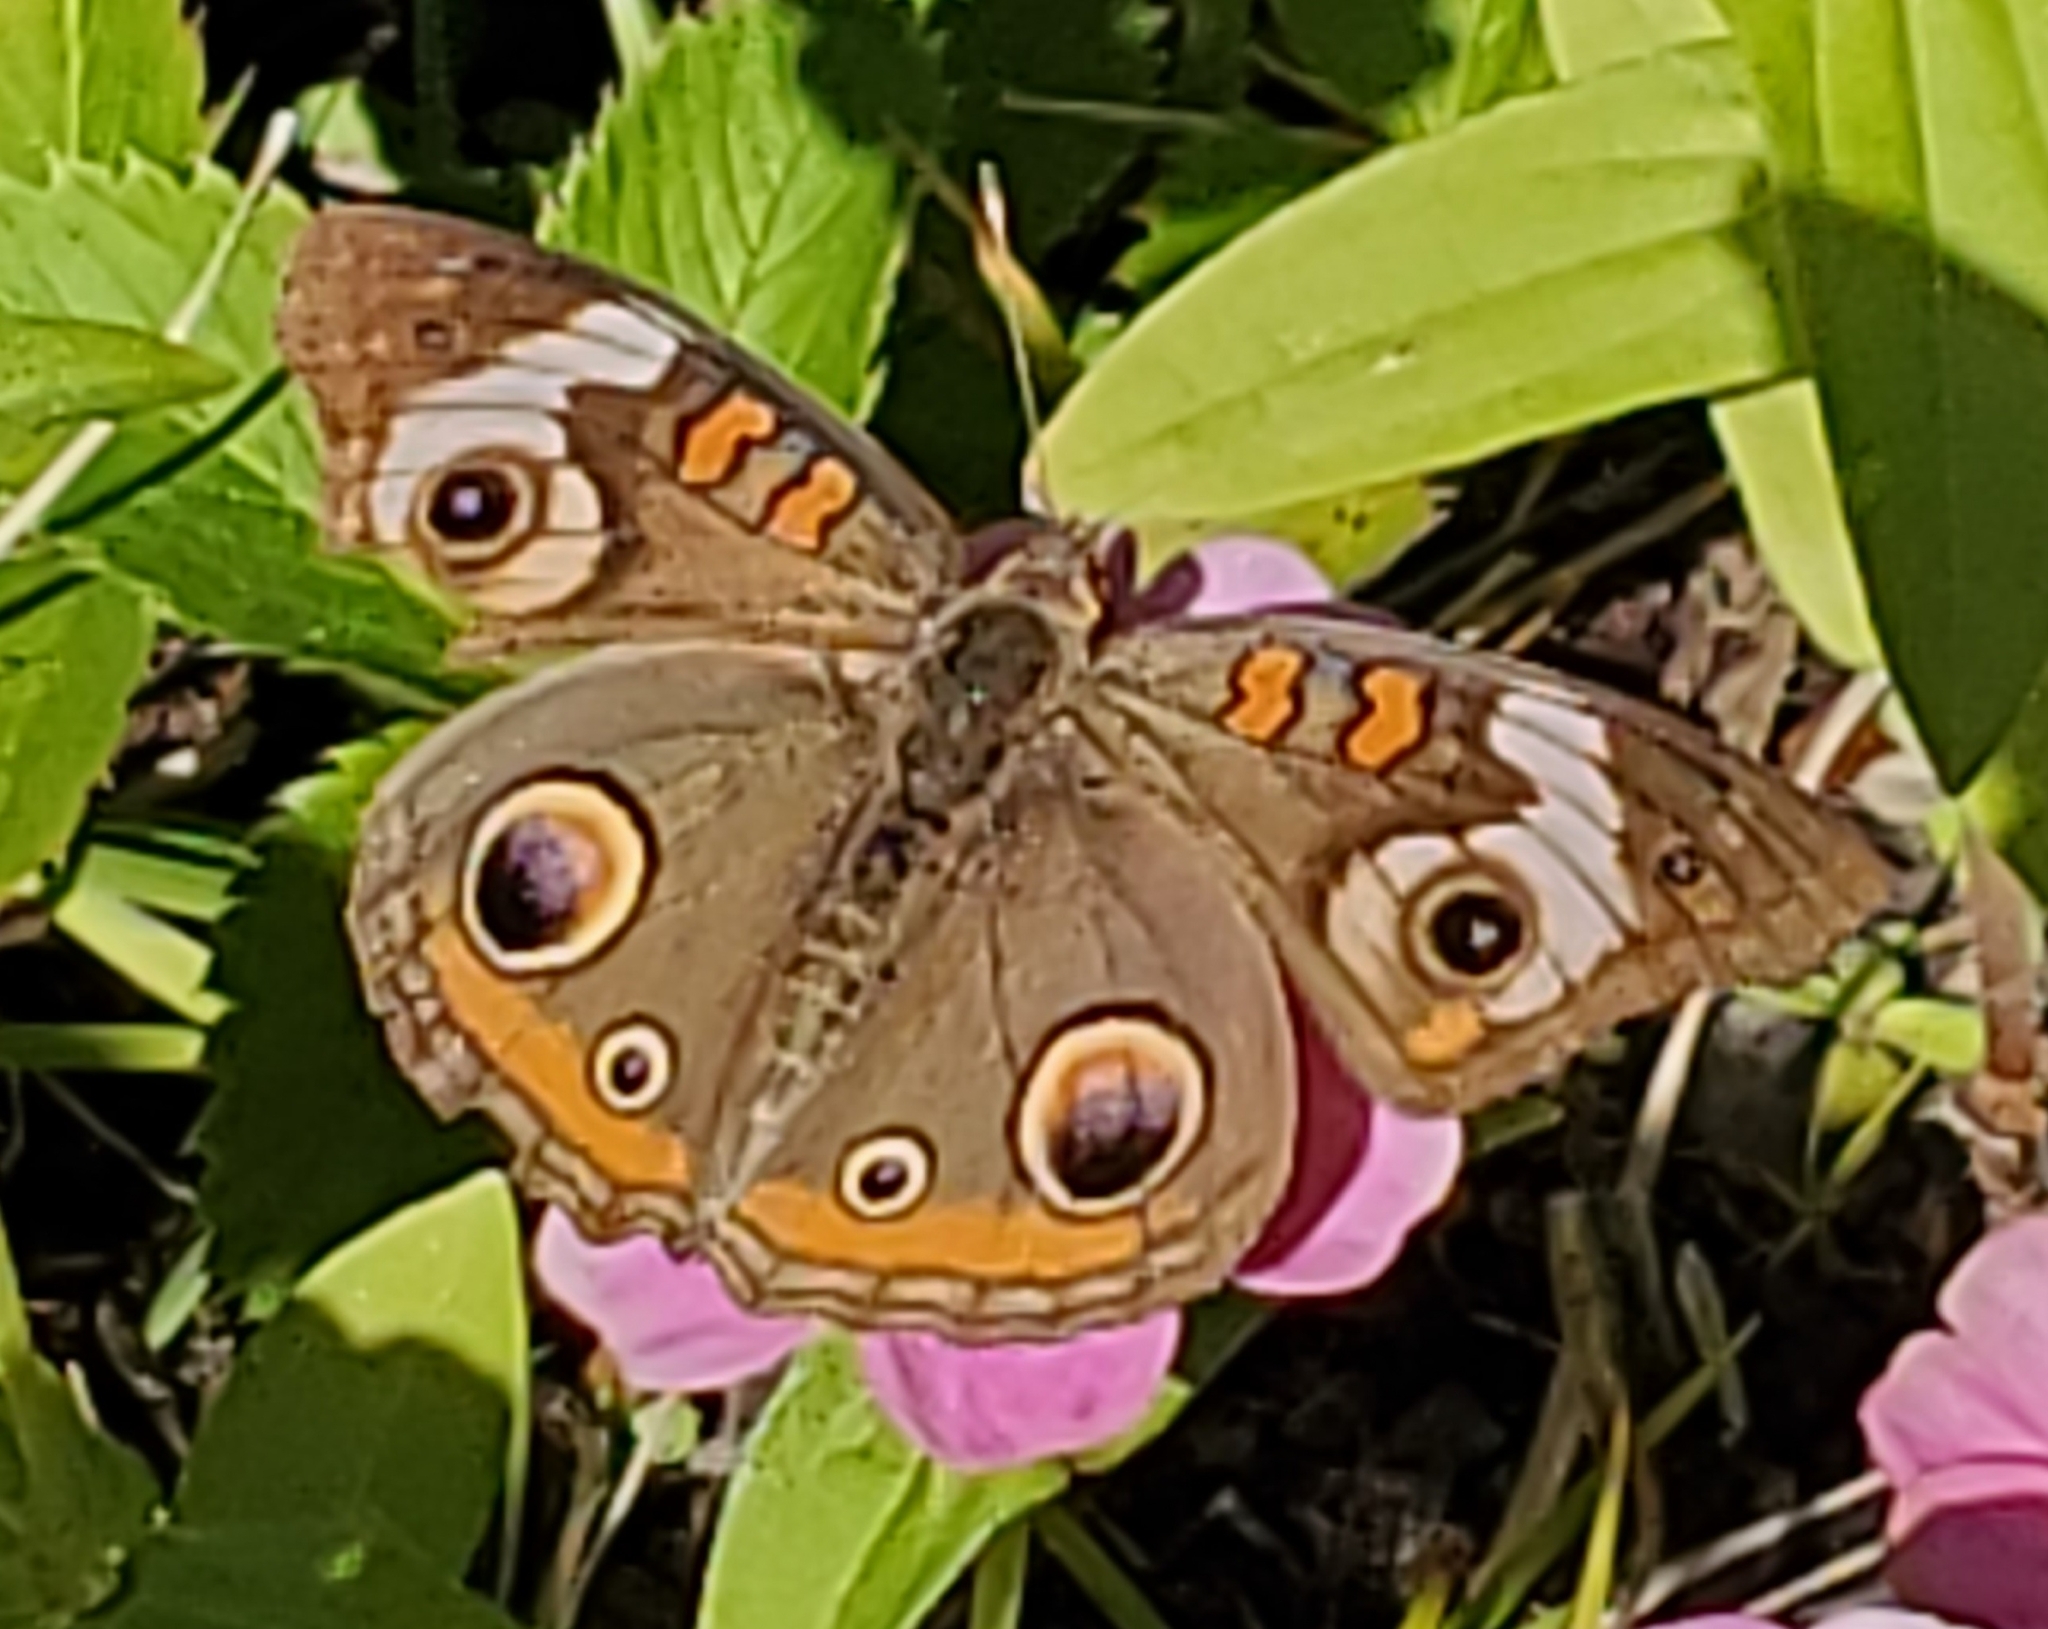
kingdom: Animalia
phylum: Arthropoda
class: Insecta
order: Lepidoptera
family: Nymphalidae
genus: Junonia
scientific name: Junonia coenia
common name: Common buckeye
